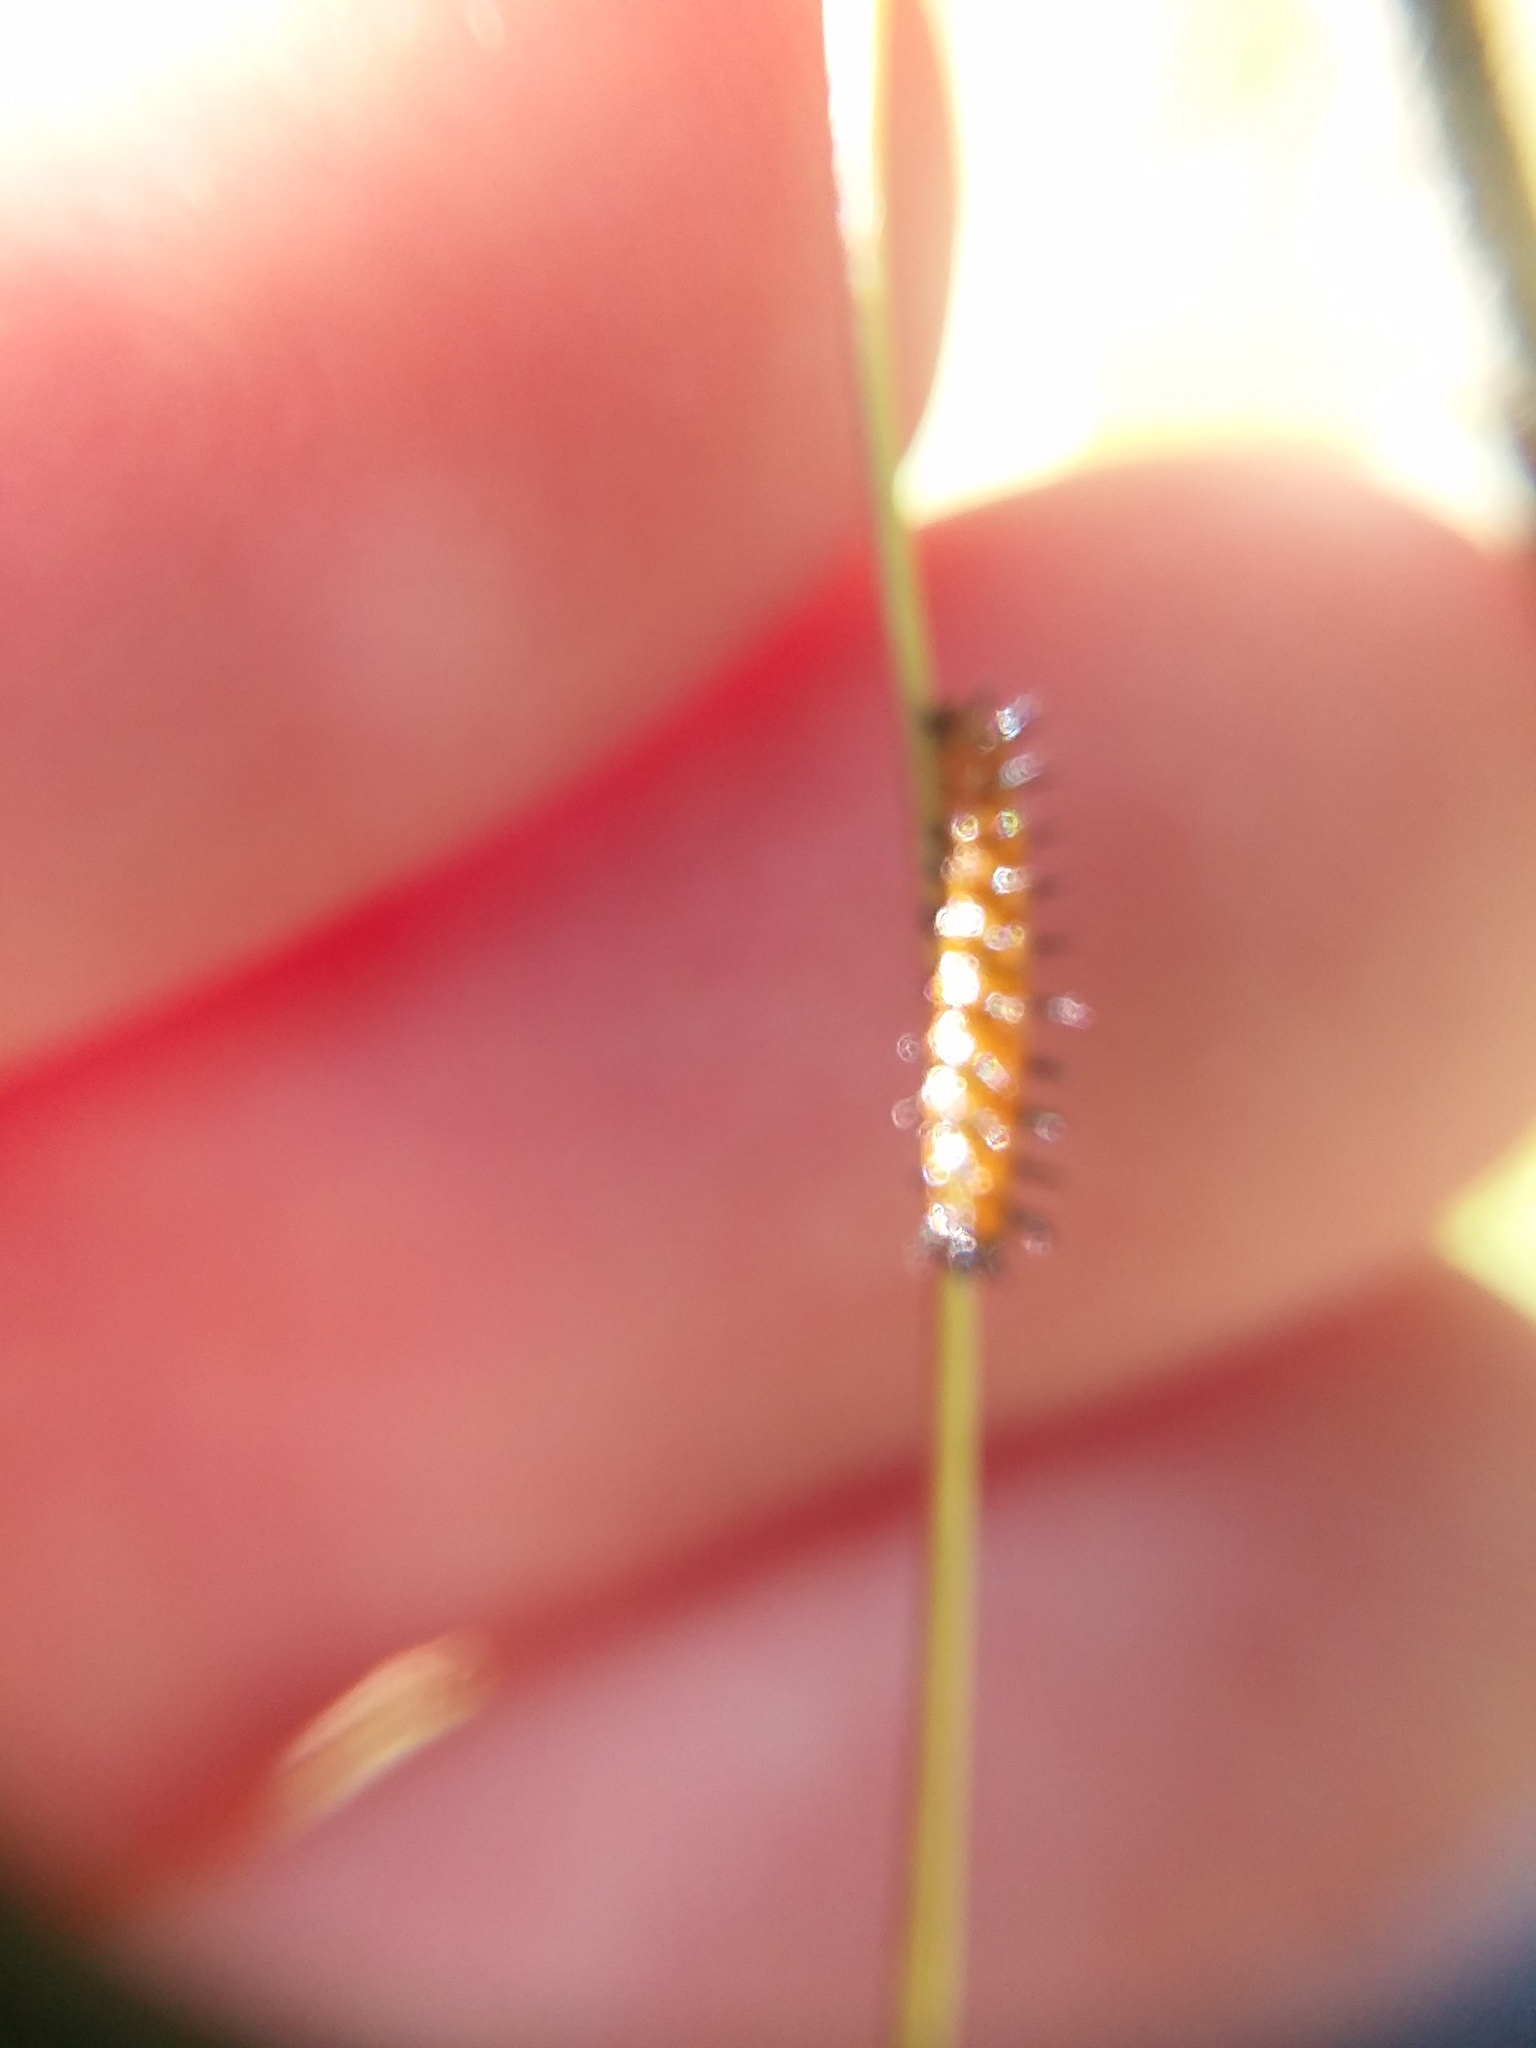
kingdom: Animalia
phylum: Arthropoda
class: Insecta
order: Lepidoptera
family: Nymphalidae
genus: Dione
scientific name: Dione vanillae
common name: Gulf fritillary
